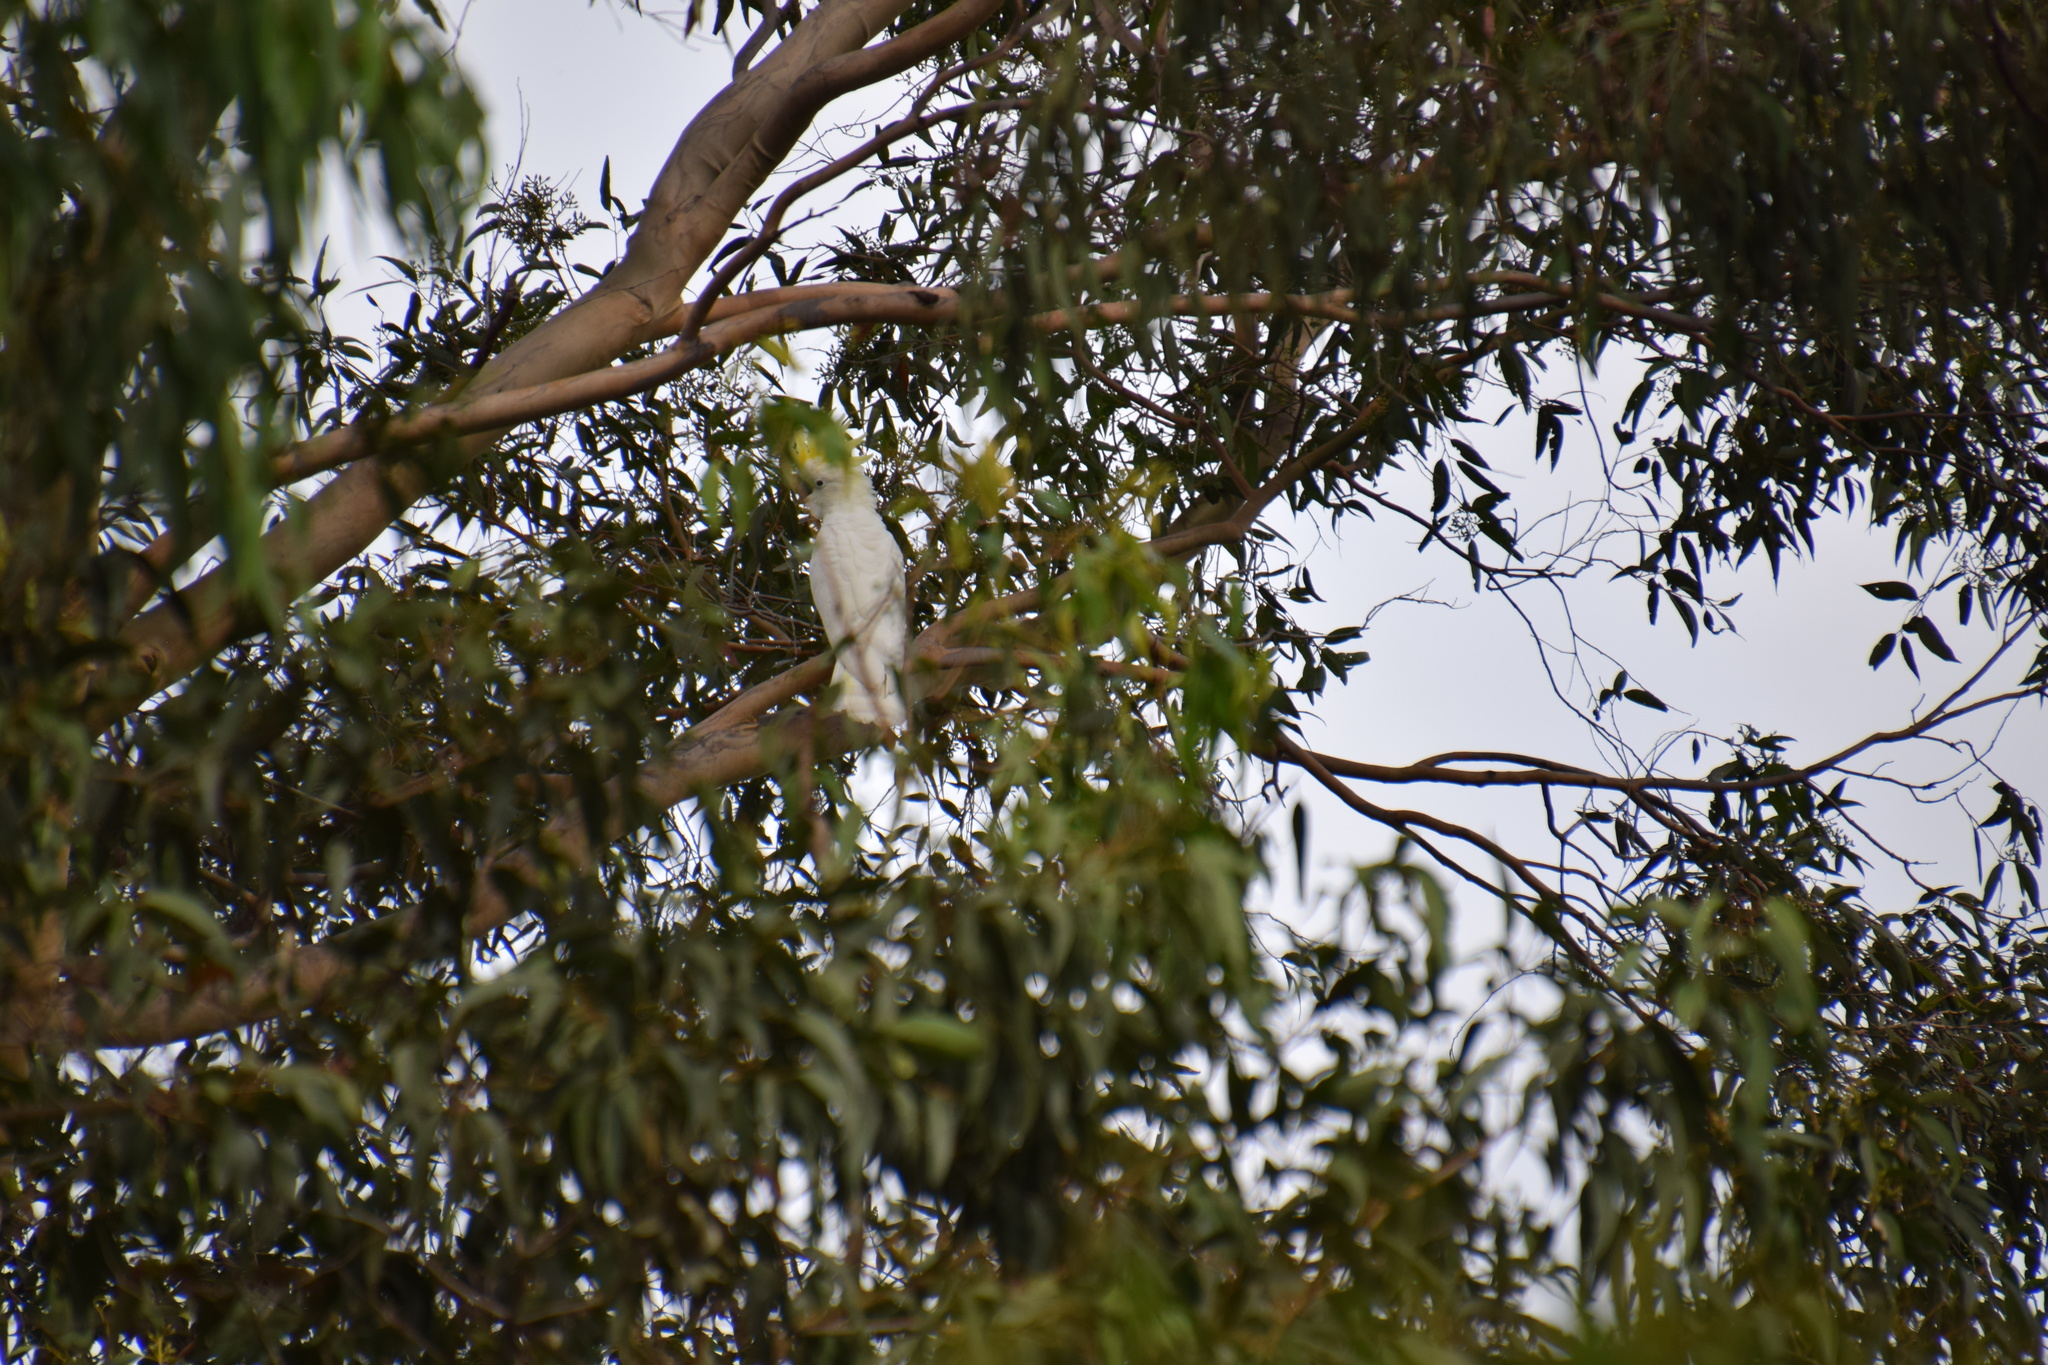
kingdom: Animalia
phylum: Chordata
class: Aves
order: Psittaciformes
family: Psittacidae
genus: Cacatua
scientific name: Cacatua galerita
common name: Sulphur-crested cockatoo
